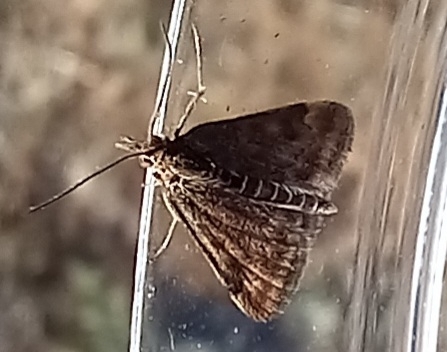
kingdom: Animalia
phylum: Arthropoda
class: Insecta
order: Lepidoptera
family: Crambidae
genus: Pyrausta
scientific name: Pyrausta despicata
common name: Straw-barred pearl
